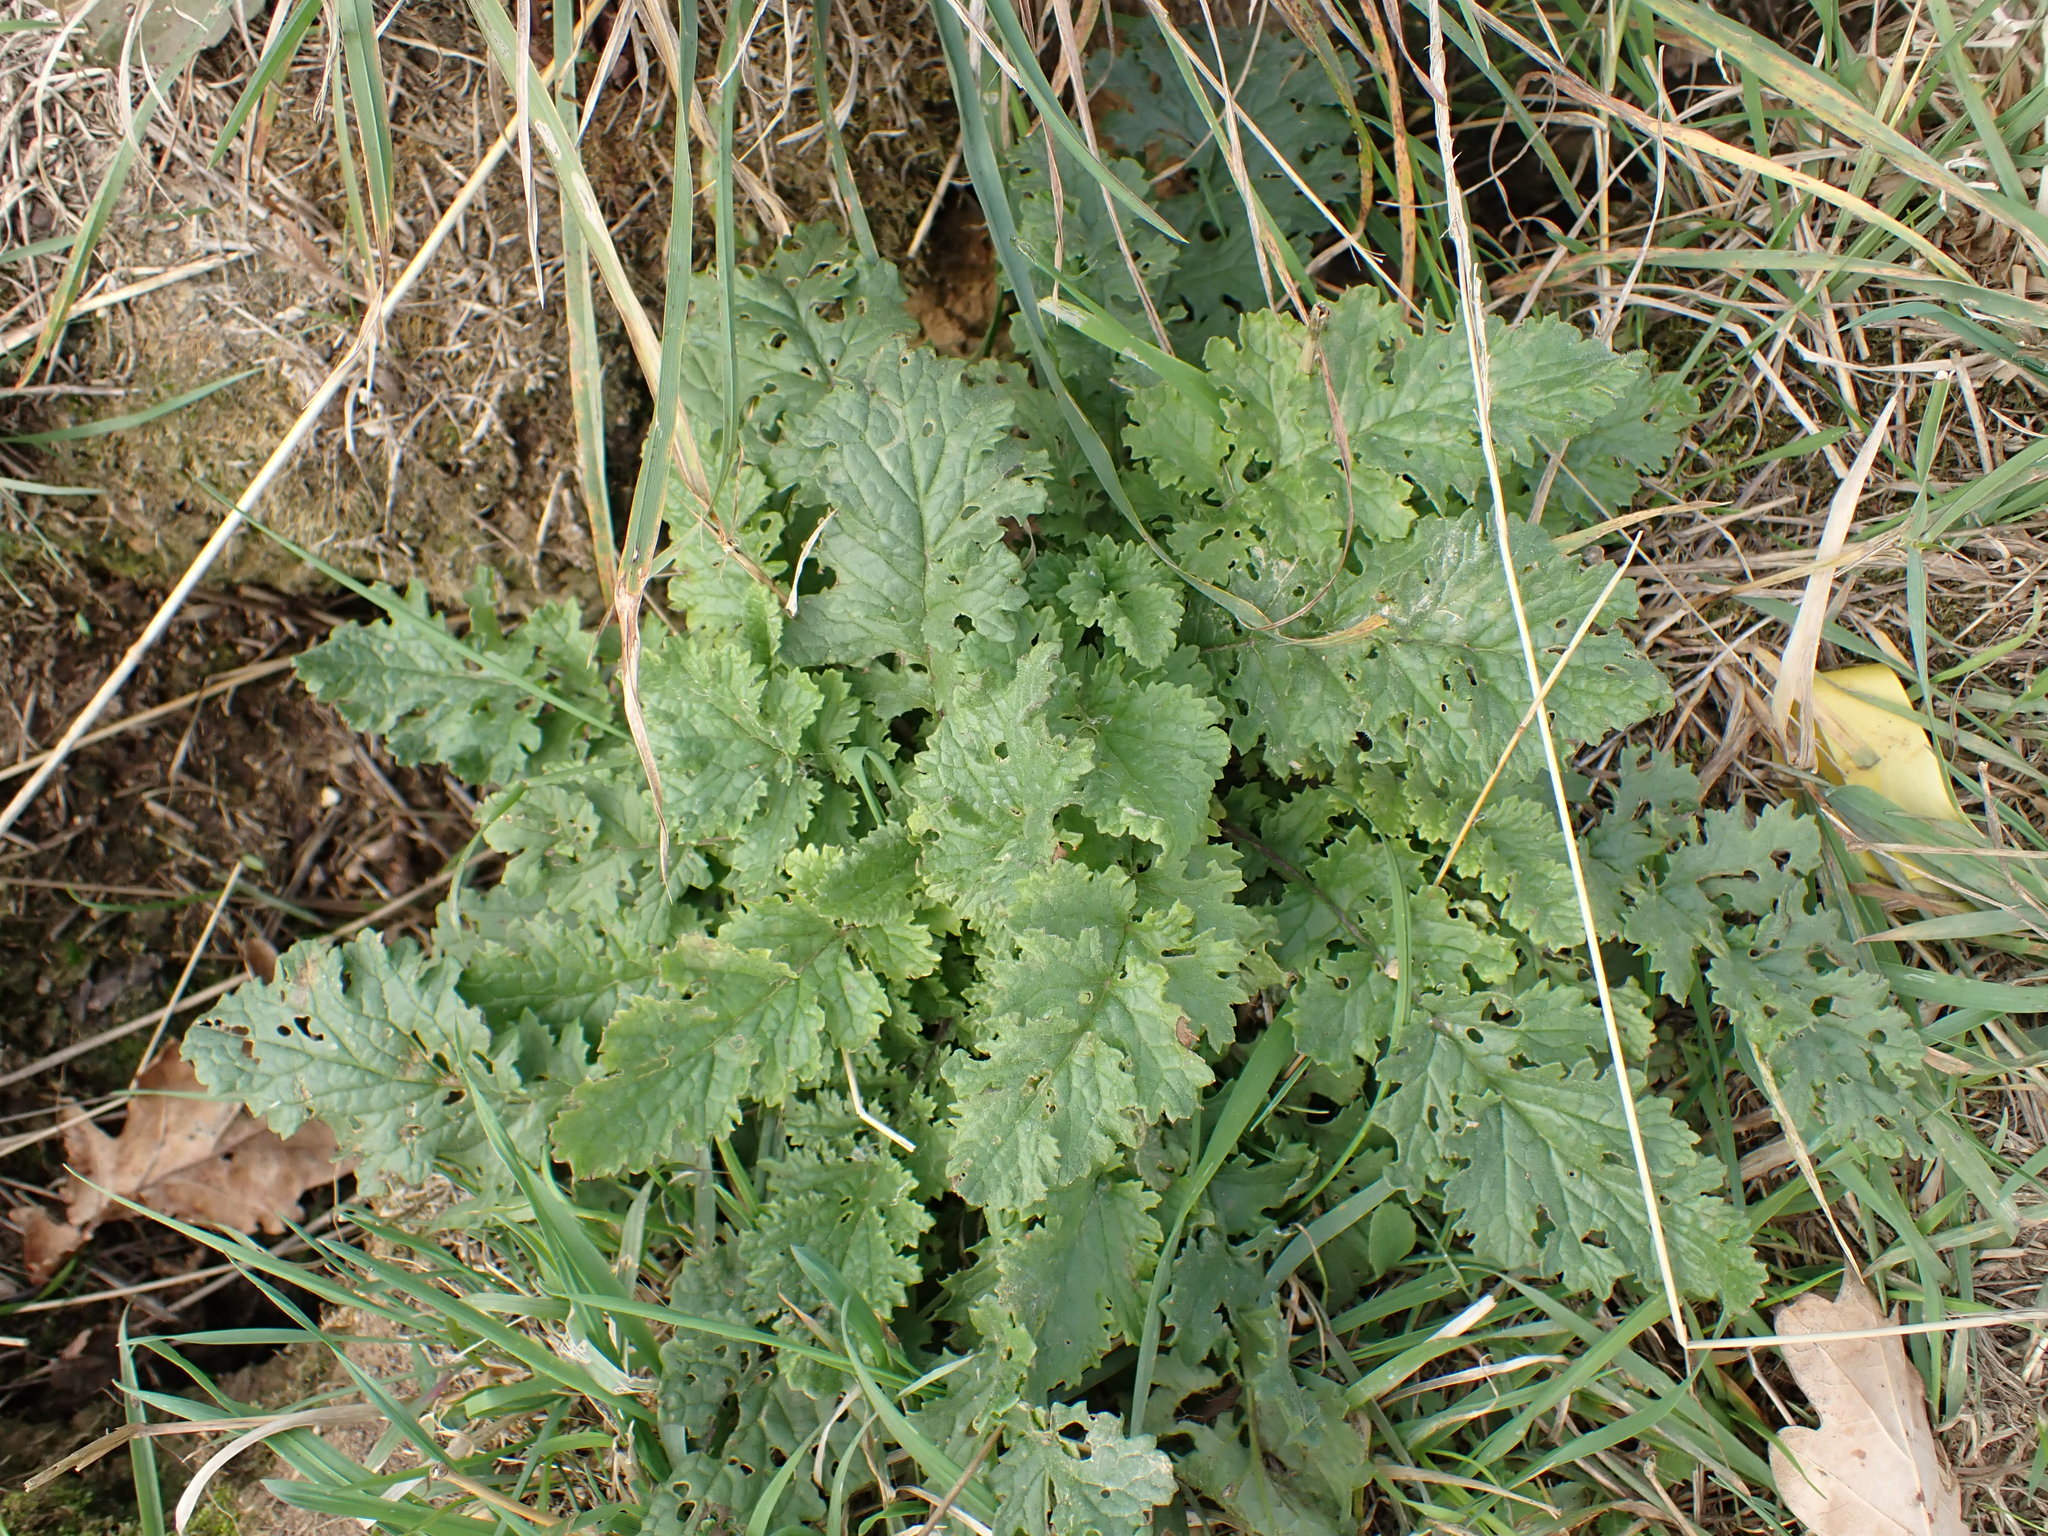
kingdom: Plantae
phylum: Tracheophyta
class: Magnoliopsida
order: Asterales
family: Asteraceae
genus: Jacobaea
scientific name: Jacobaea vulgaris
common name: Stinking willie
